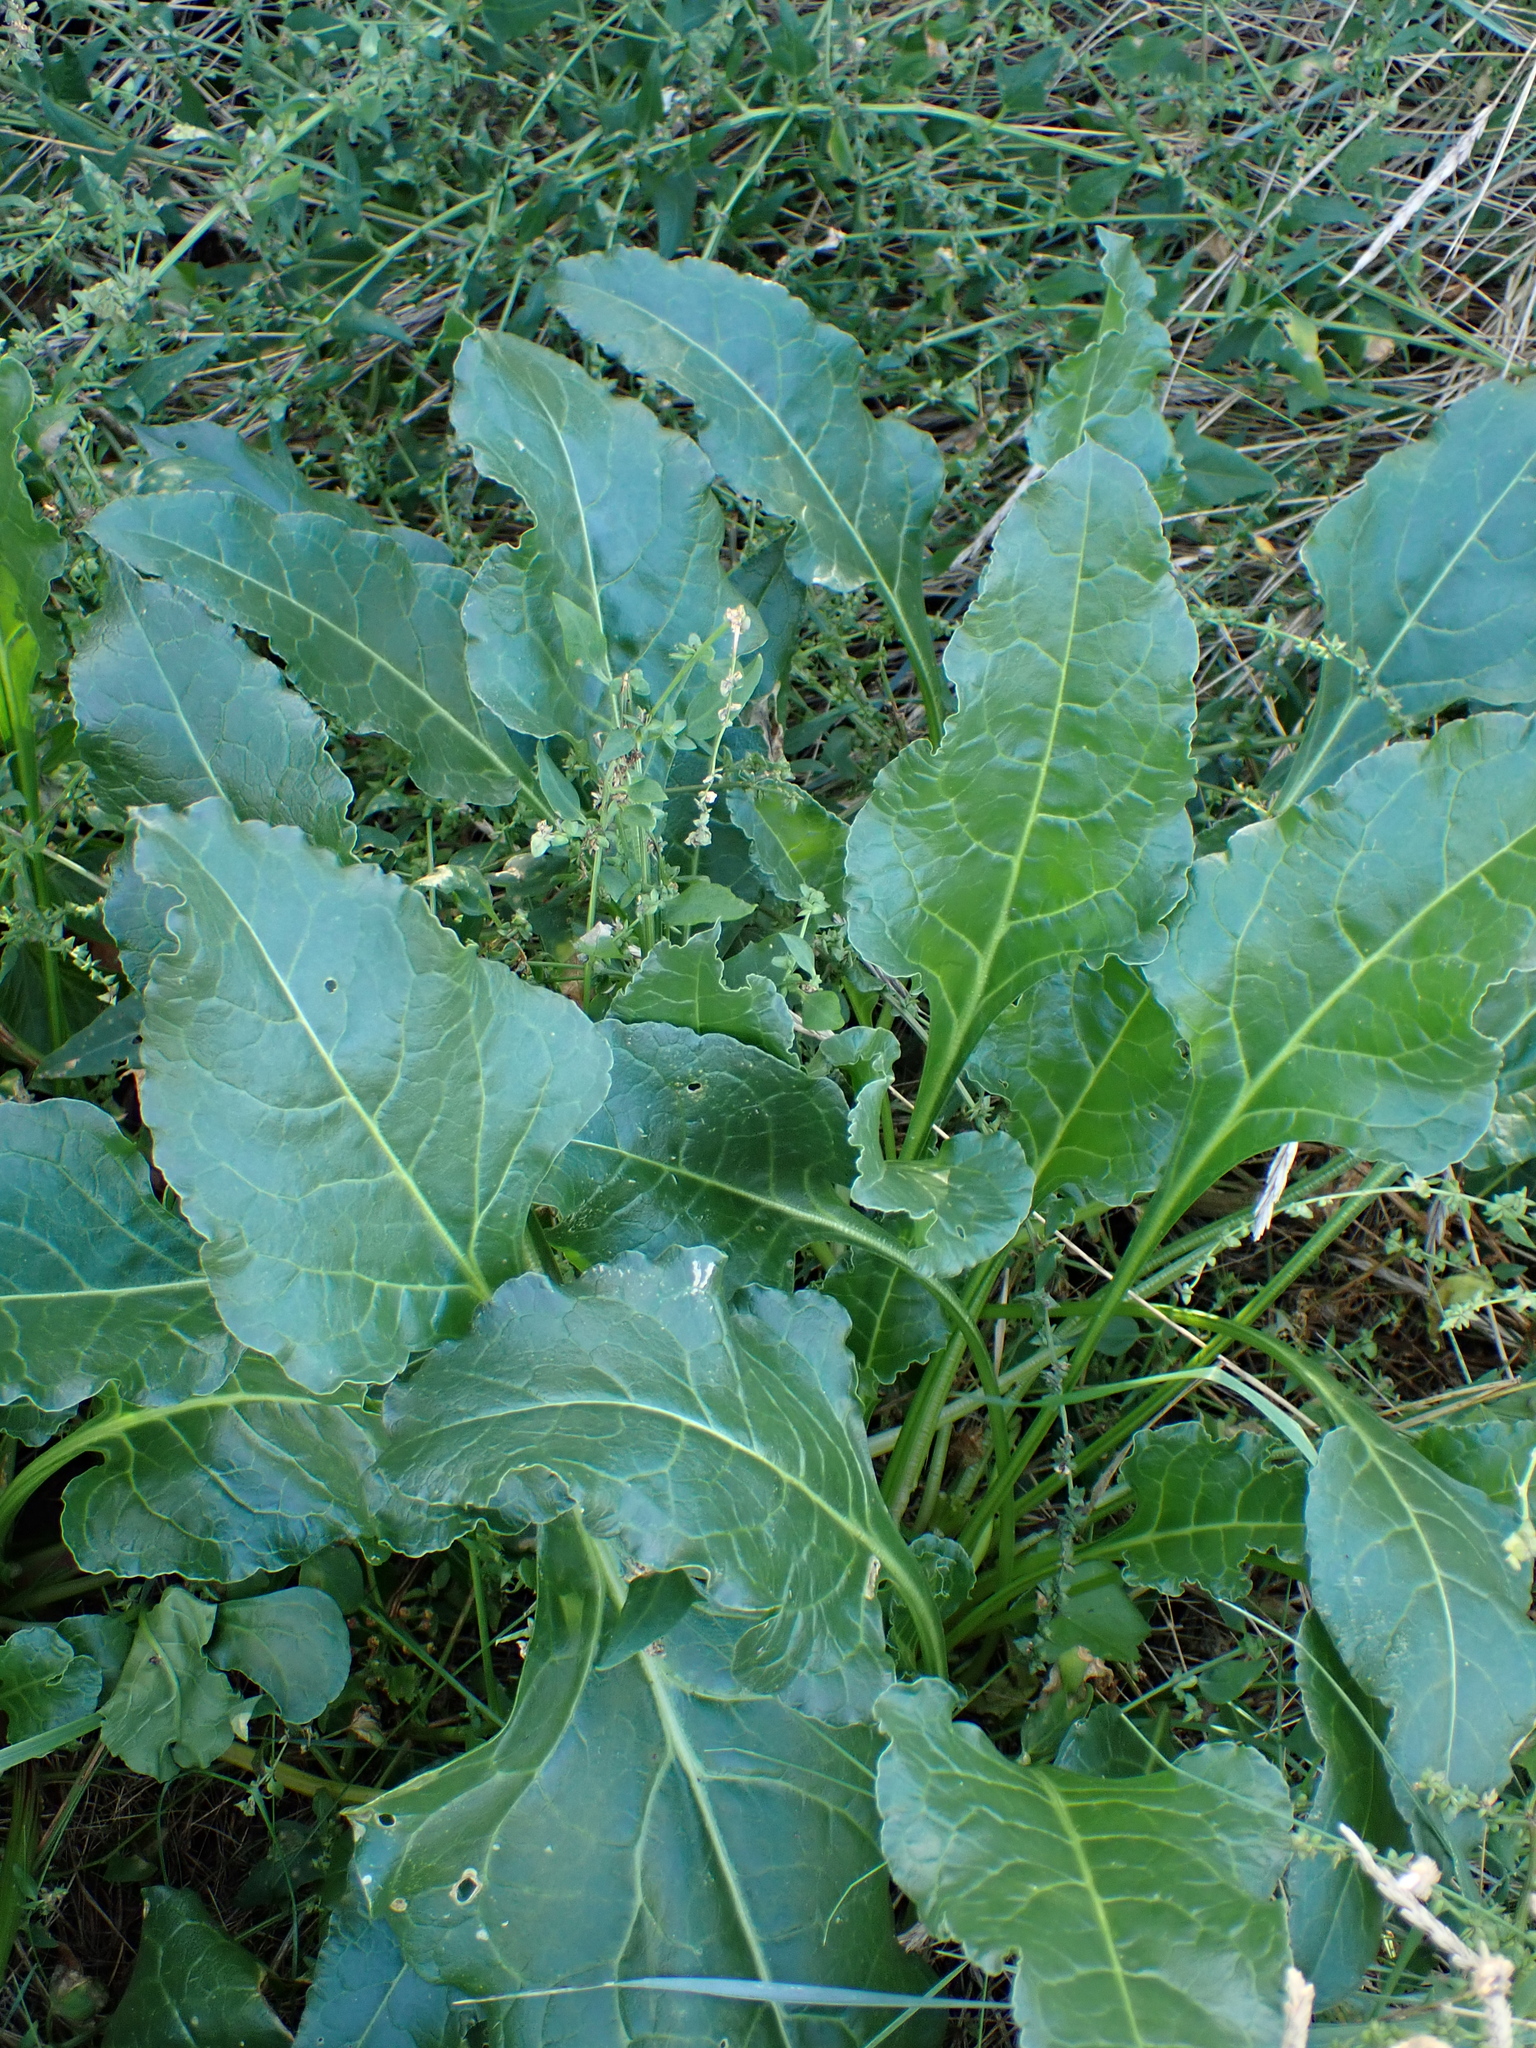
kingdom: Plantae
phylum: Tracheophyta
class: Magnoliopsida
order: Caryophyllales
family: Amaranthaceae
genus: Beta
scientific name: Beta vulgaris
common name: Beet
